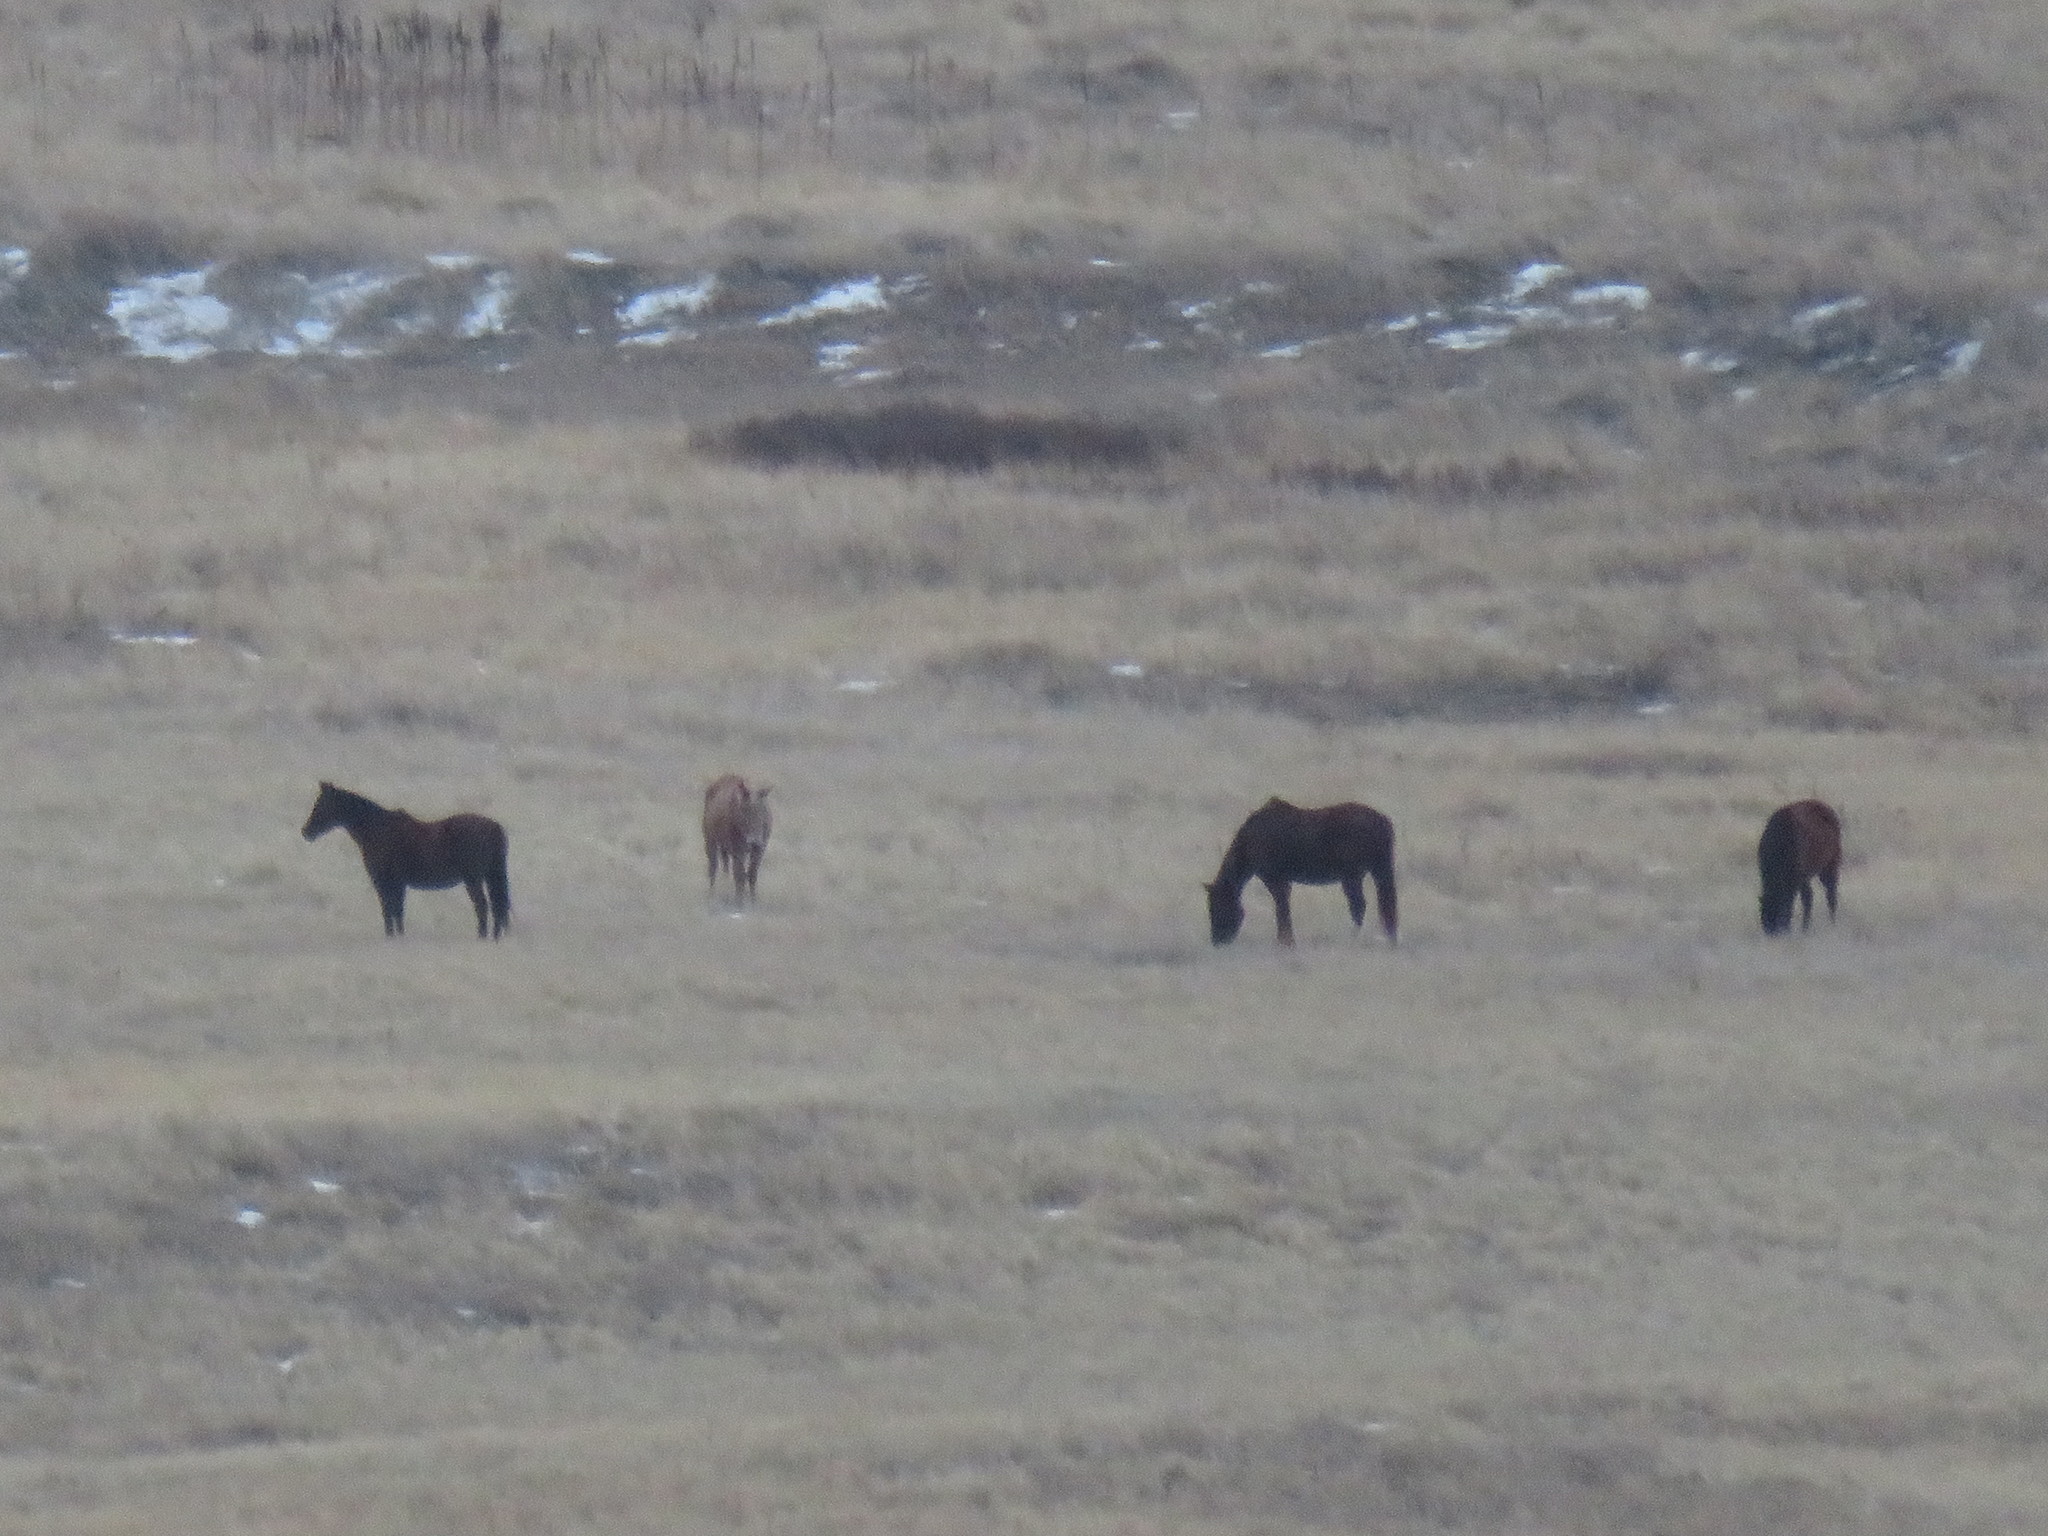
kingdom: Animalia
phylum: Chordata
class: Mammalia
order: Perissodactyla
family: Equidae
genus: Equus
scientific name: Equus asinus
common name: Ass
